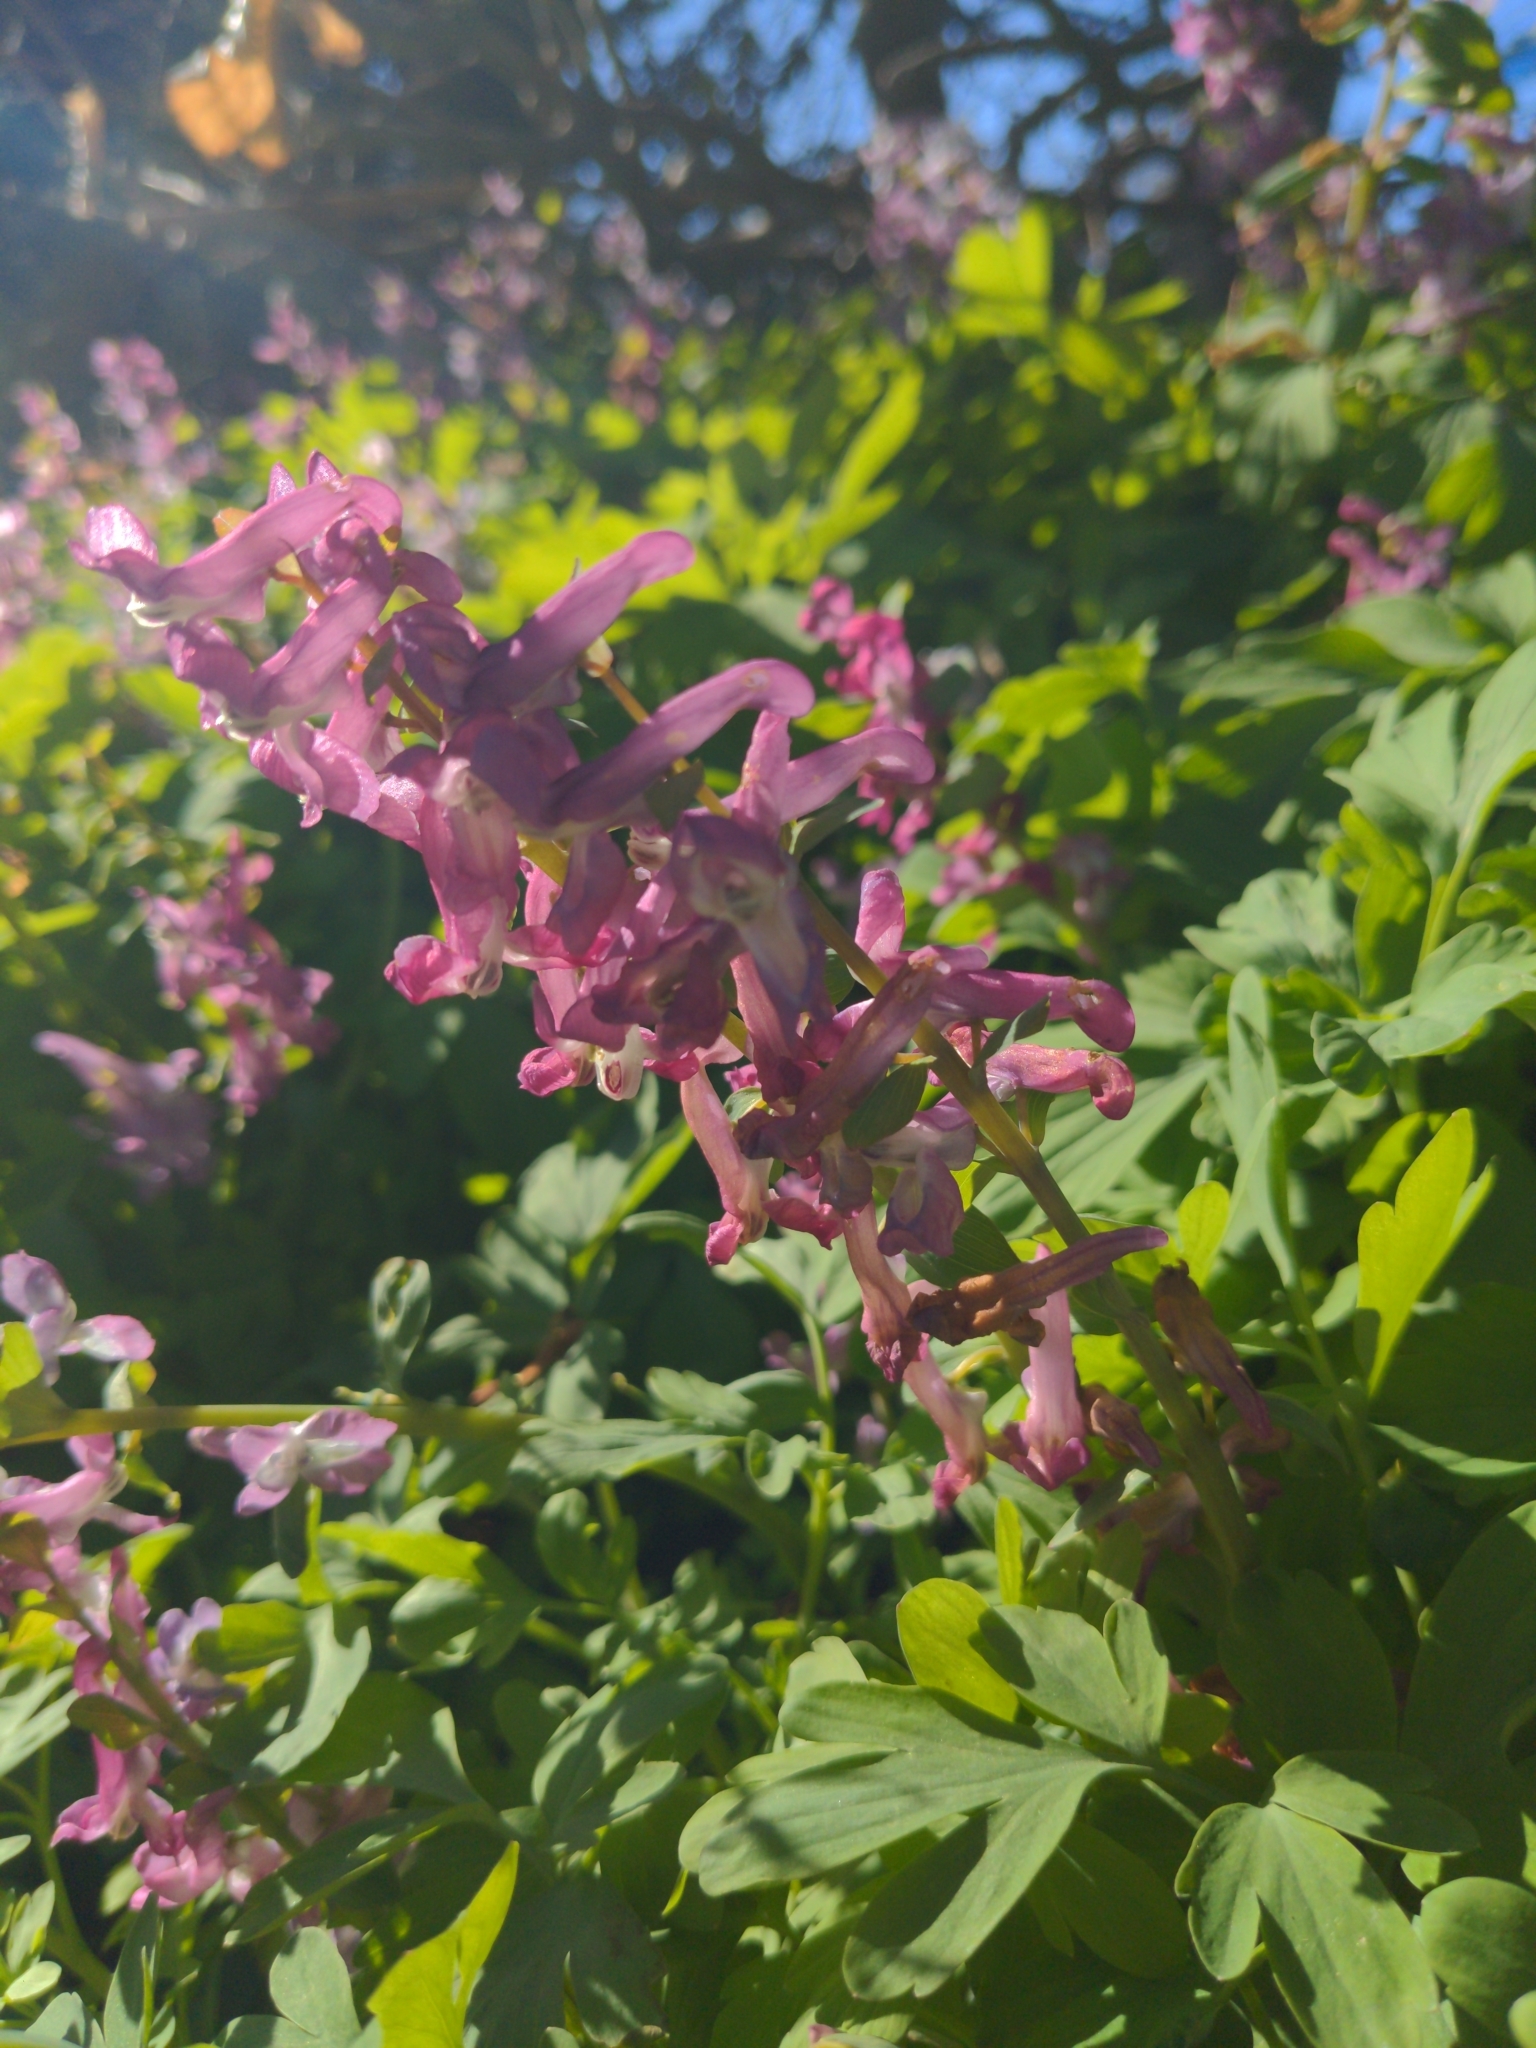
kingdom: Plantae
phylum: Tracheophyta
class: Magnoliopsida
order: Ranunculales
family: Papaveraceae
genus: Corydalis
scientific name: Corydalis cava
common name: Hollowroot
